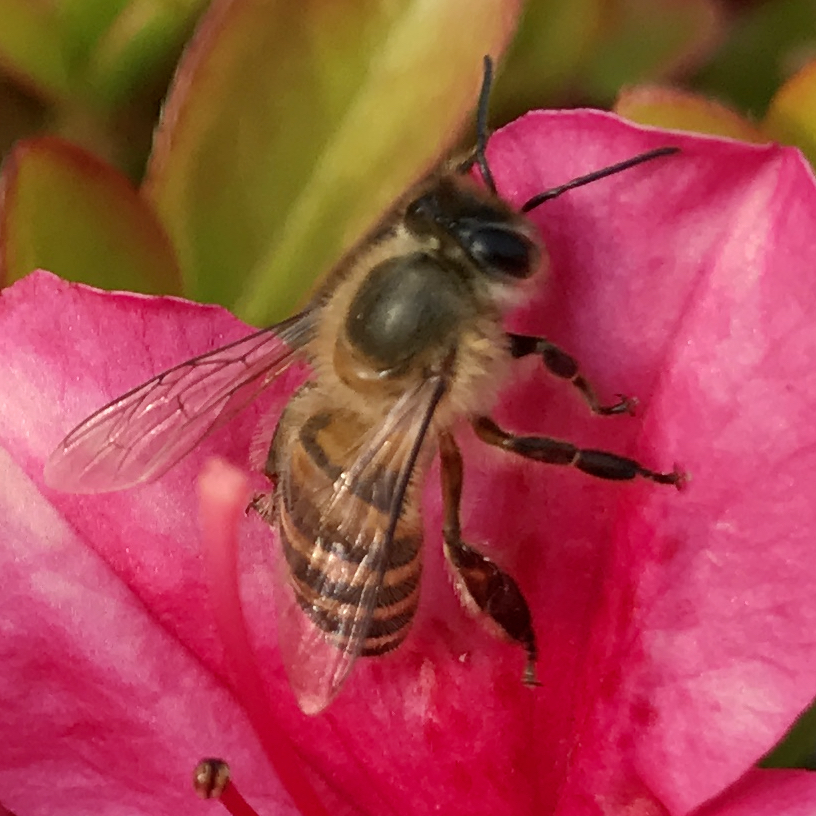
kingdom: Animalia
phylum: Arthropoda
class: Insecta
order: Hymenoptera
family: Apidae
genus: Apis
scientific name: Apis cerana
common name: Honey bee
